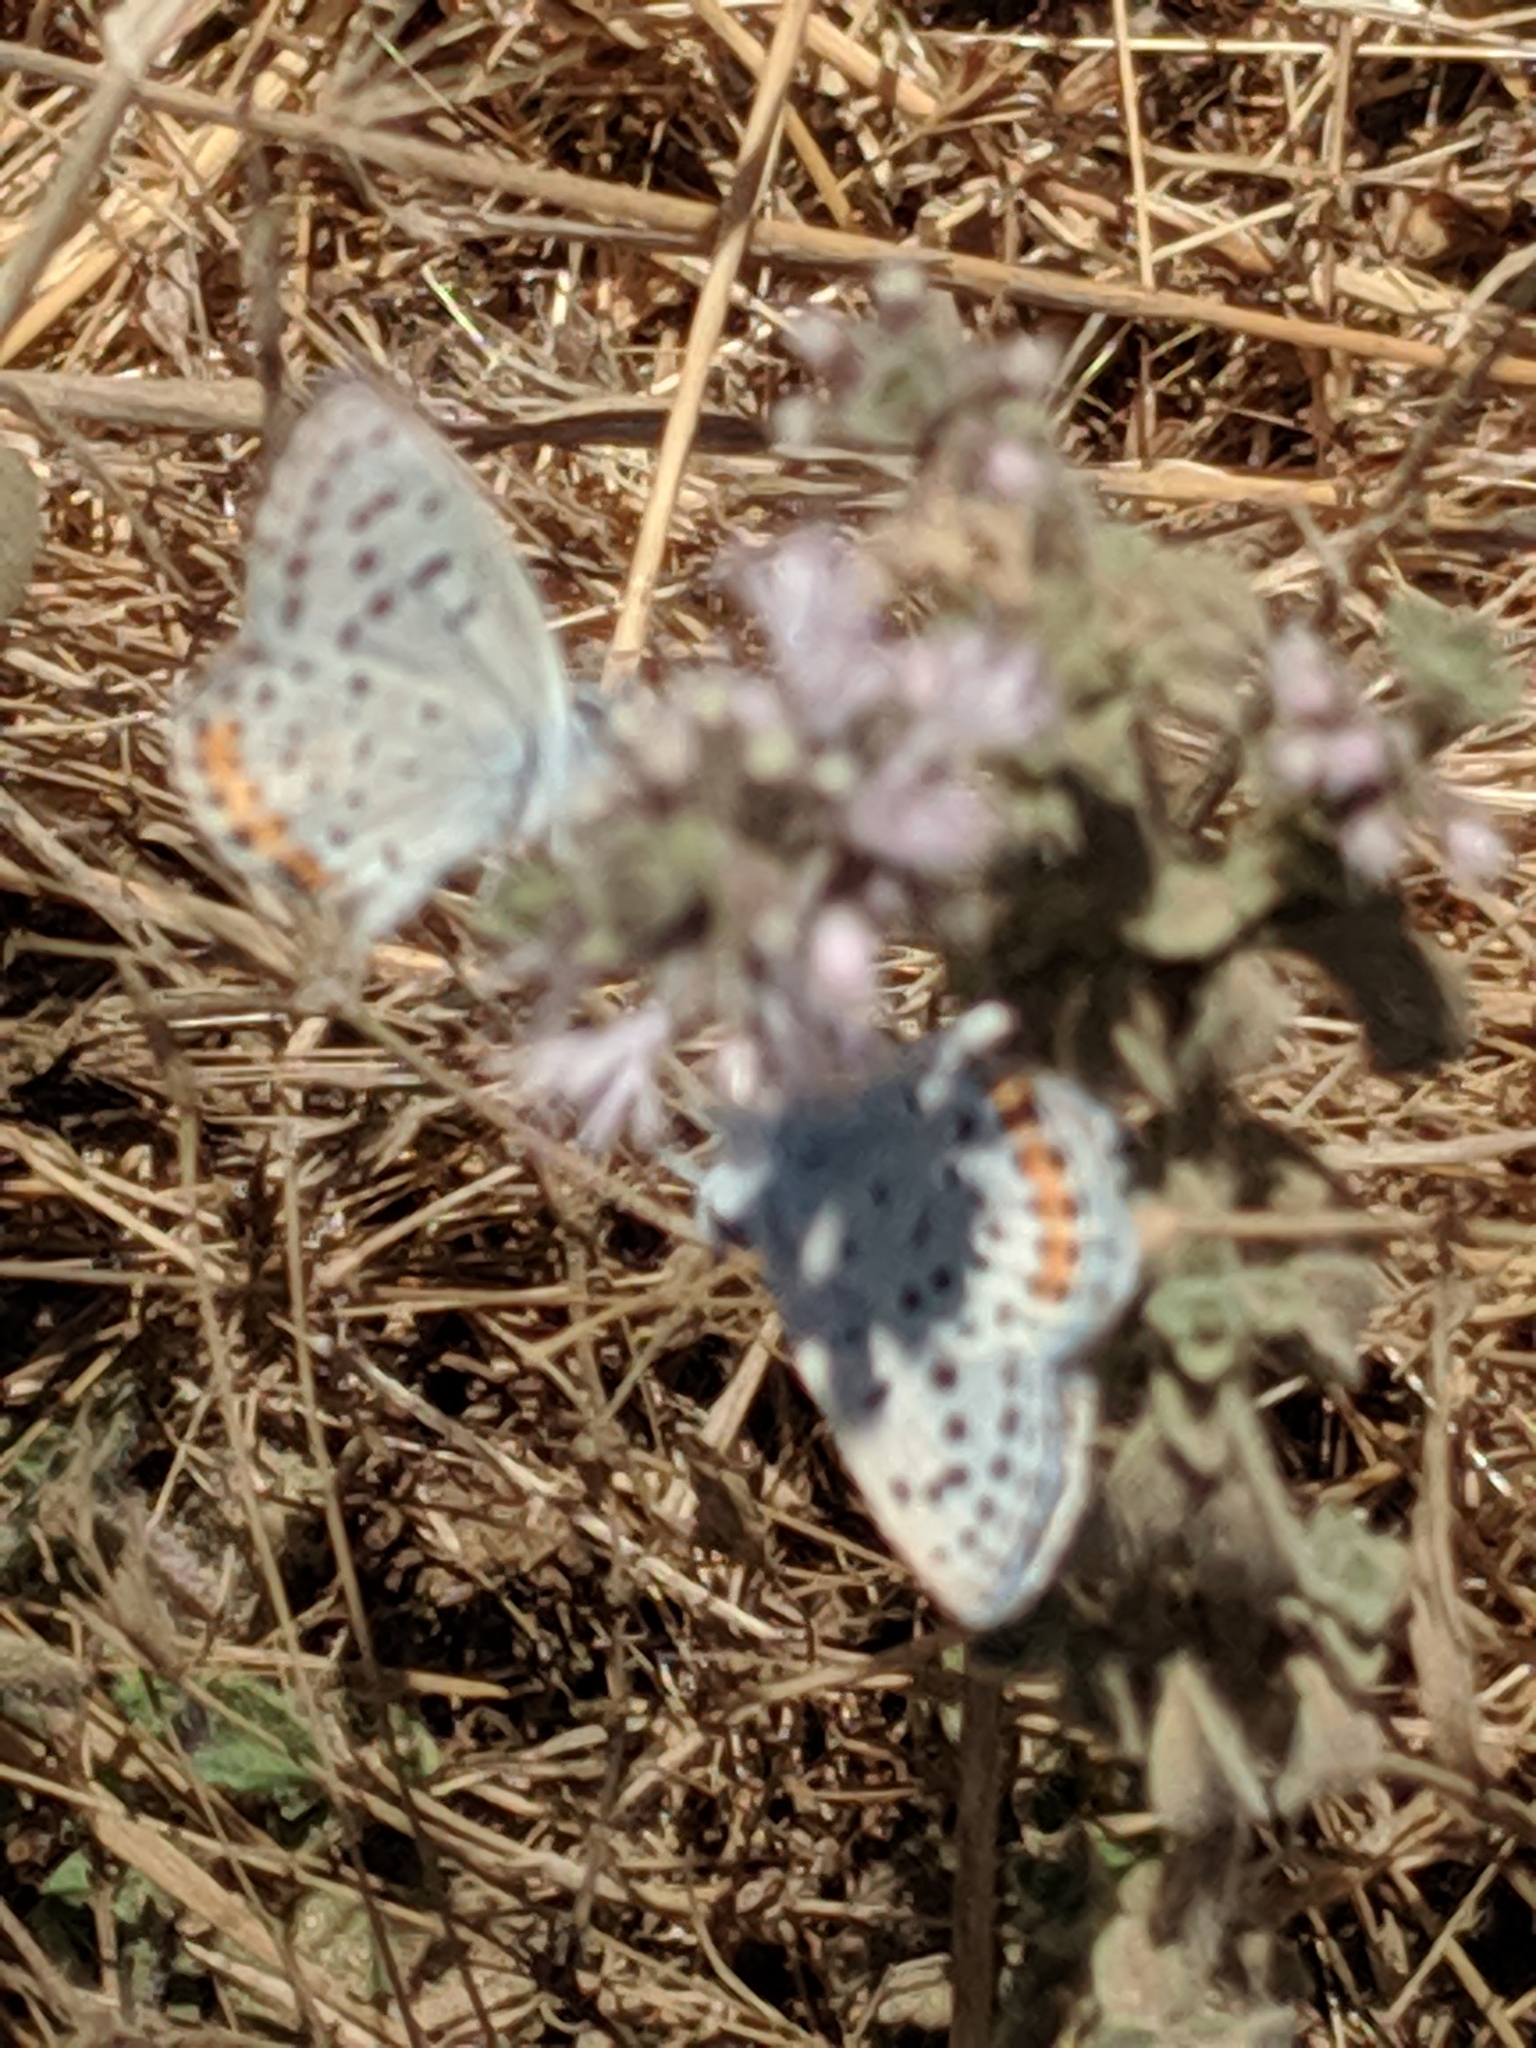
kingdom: Animalia
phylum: Arthropoda
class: Insecta
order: Lepidoptera
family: Lycaenidae
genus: Icaricia
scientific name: Icaricia acmon
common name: Acmon blue
